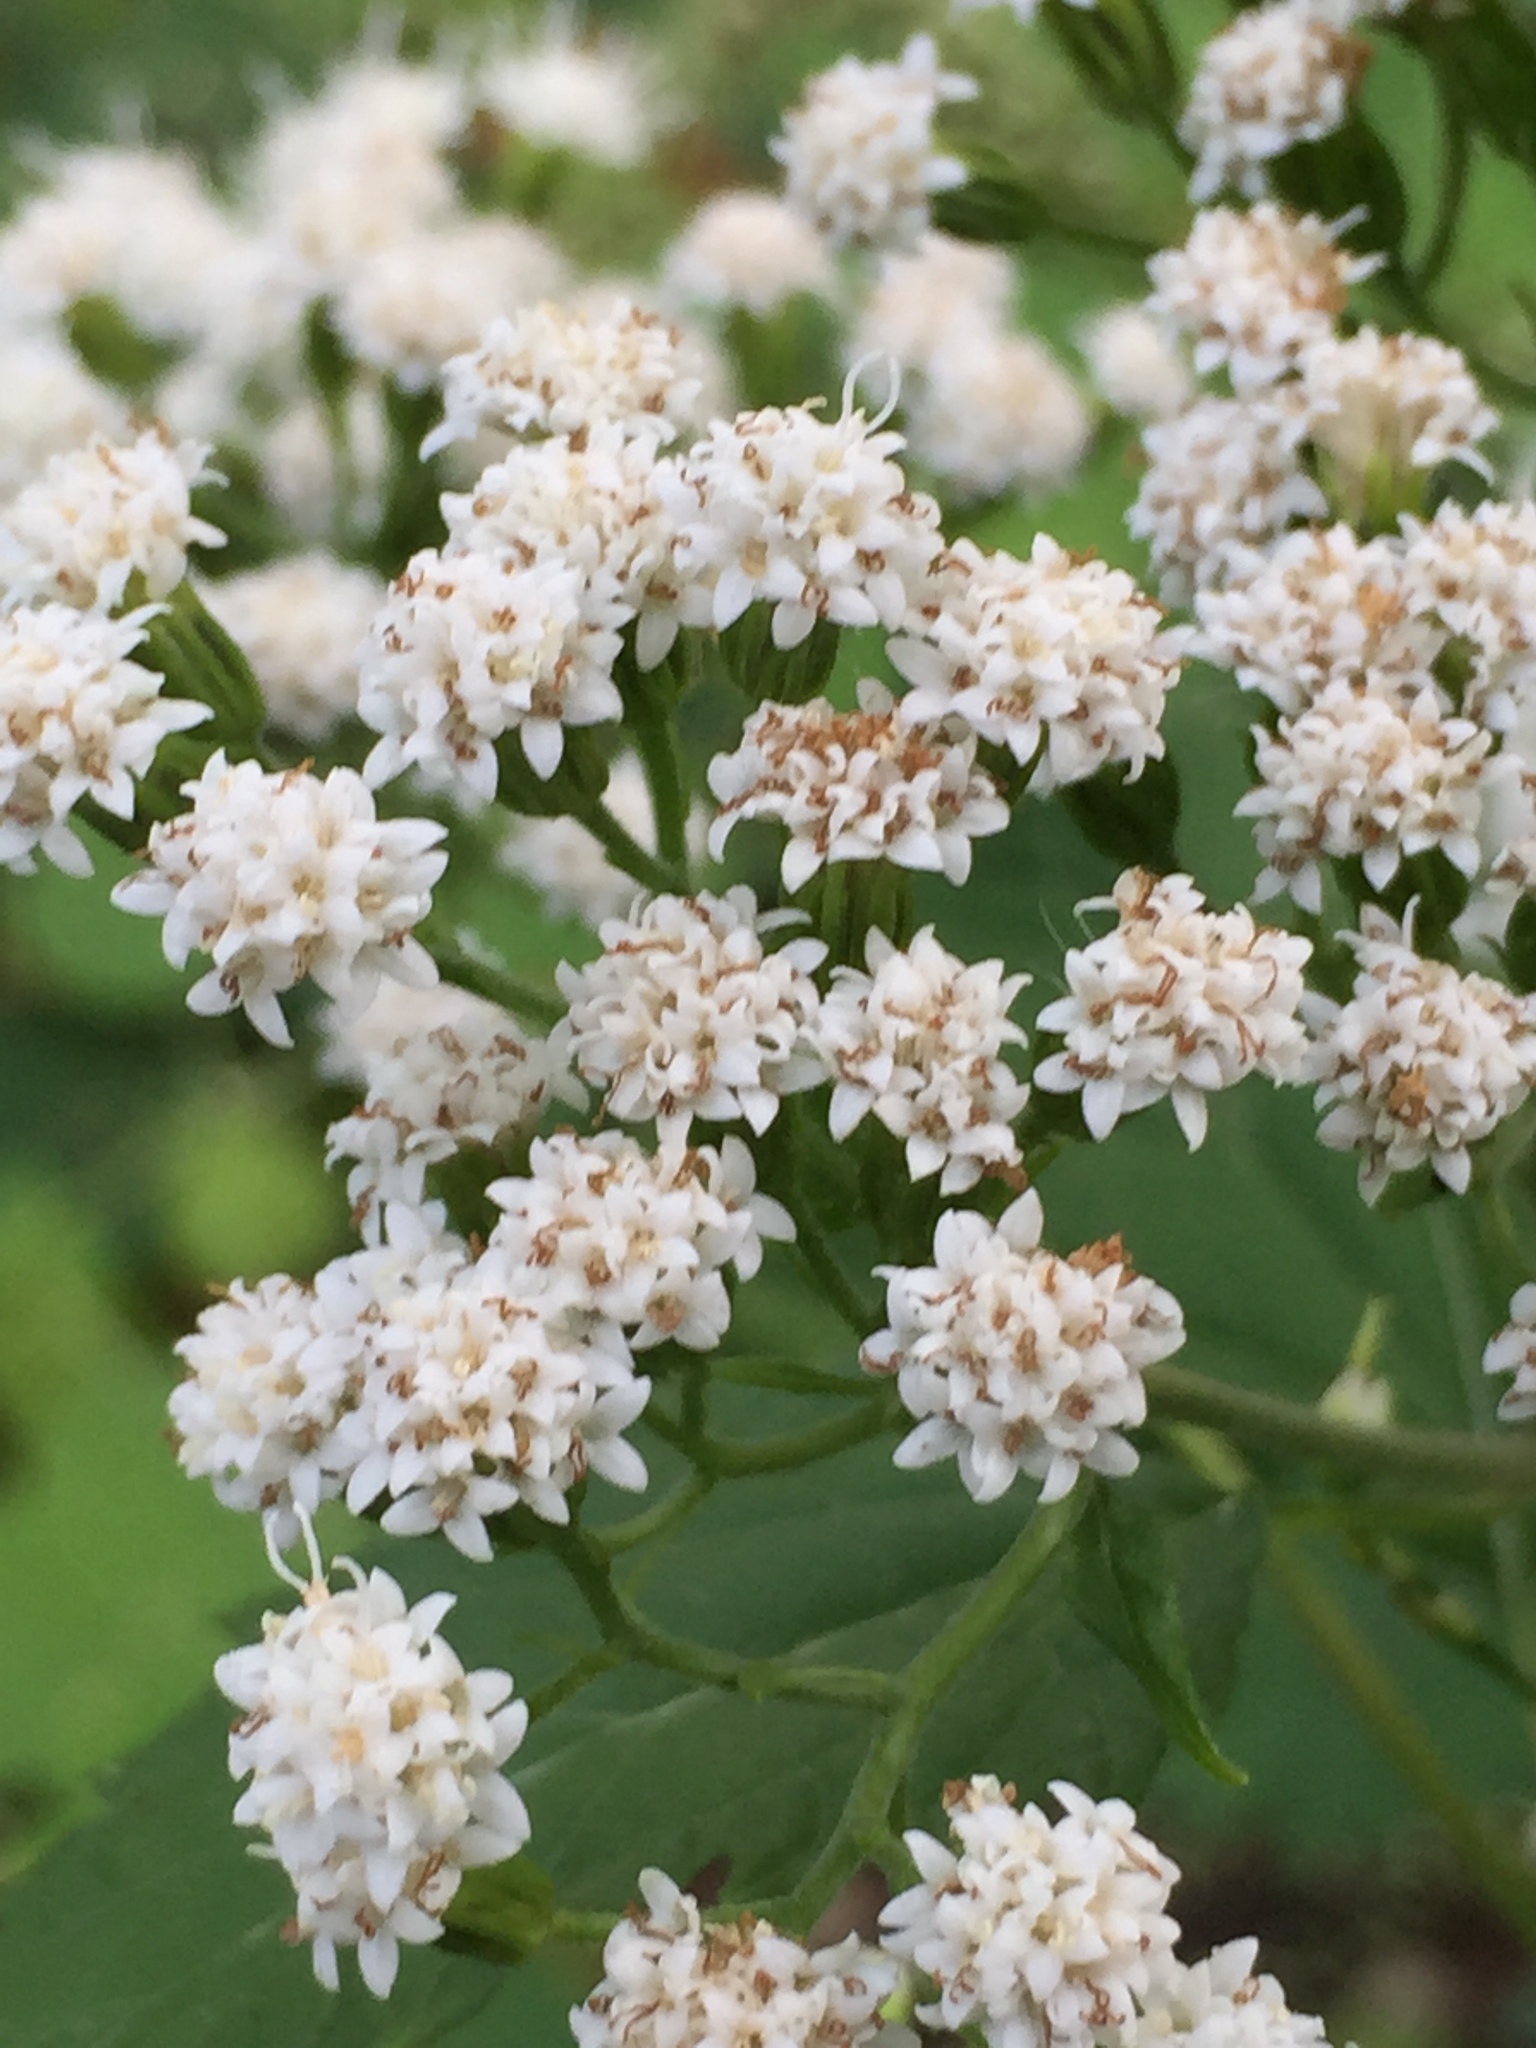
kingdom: Plantae
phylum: Tracheophyta
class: Magnoliopsida
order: Asterales
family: Asteraceae
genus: Ageratina
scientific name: Ageratina altissima
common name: White snakeroot
